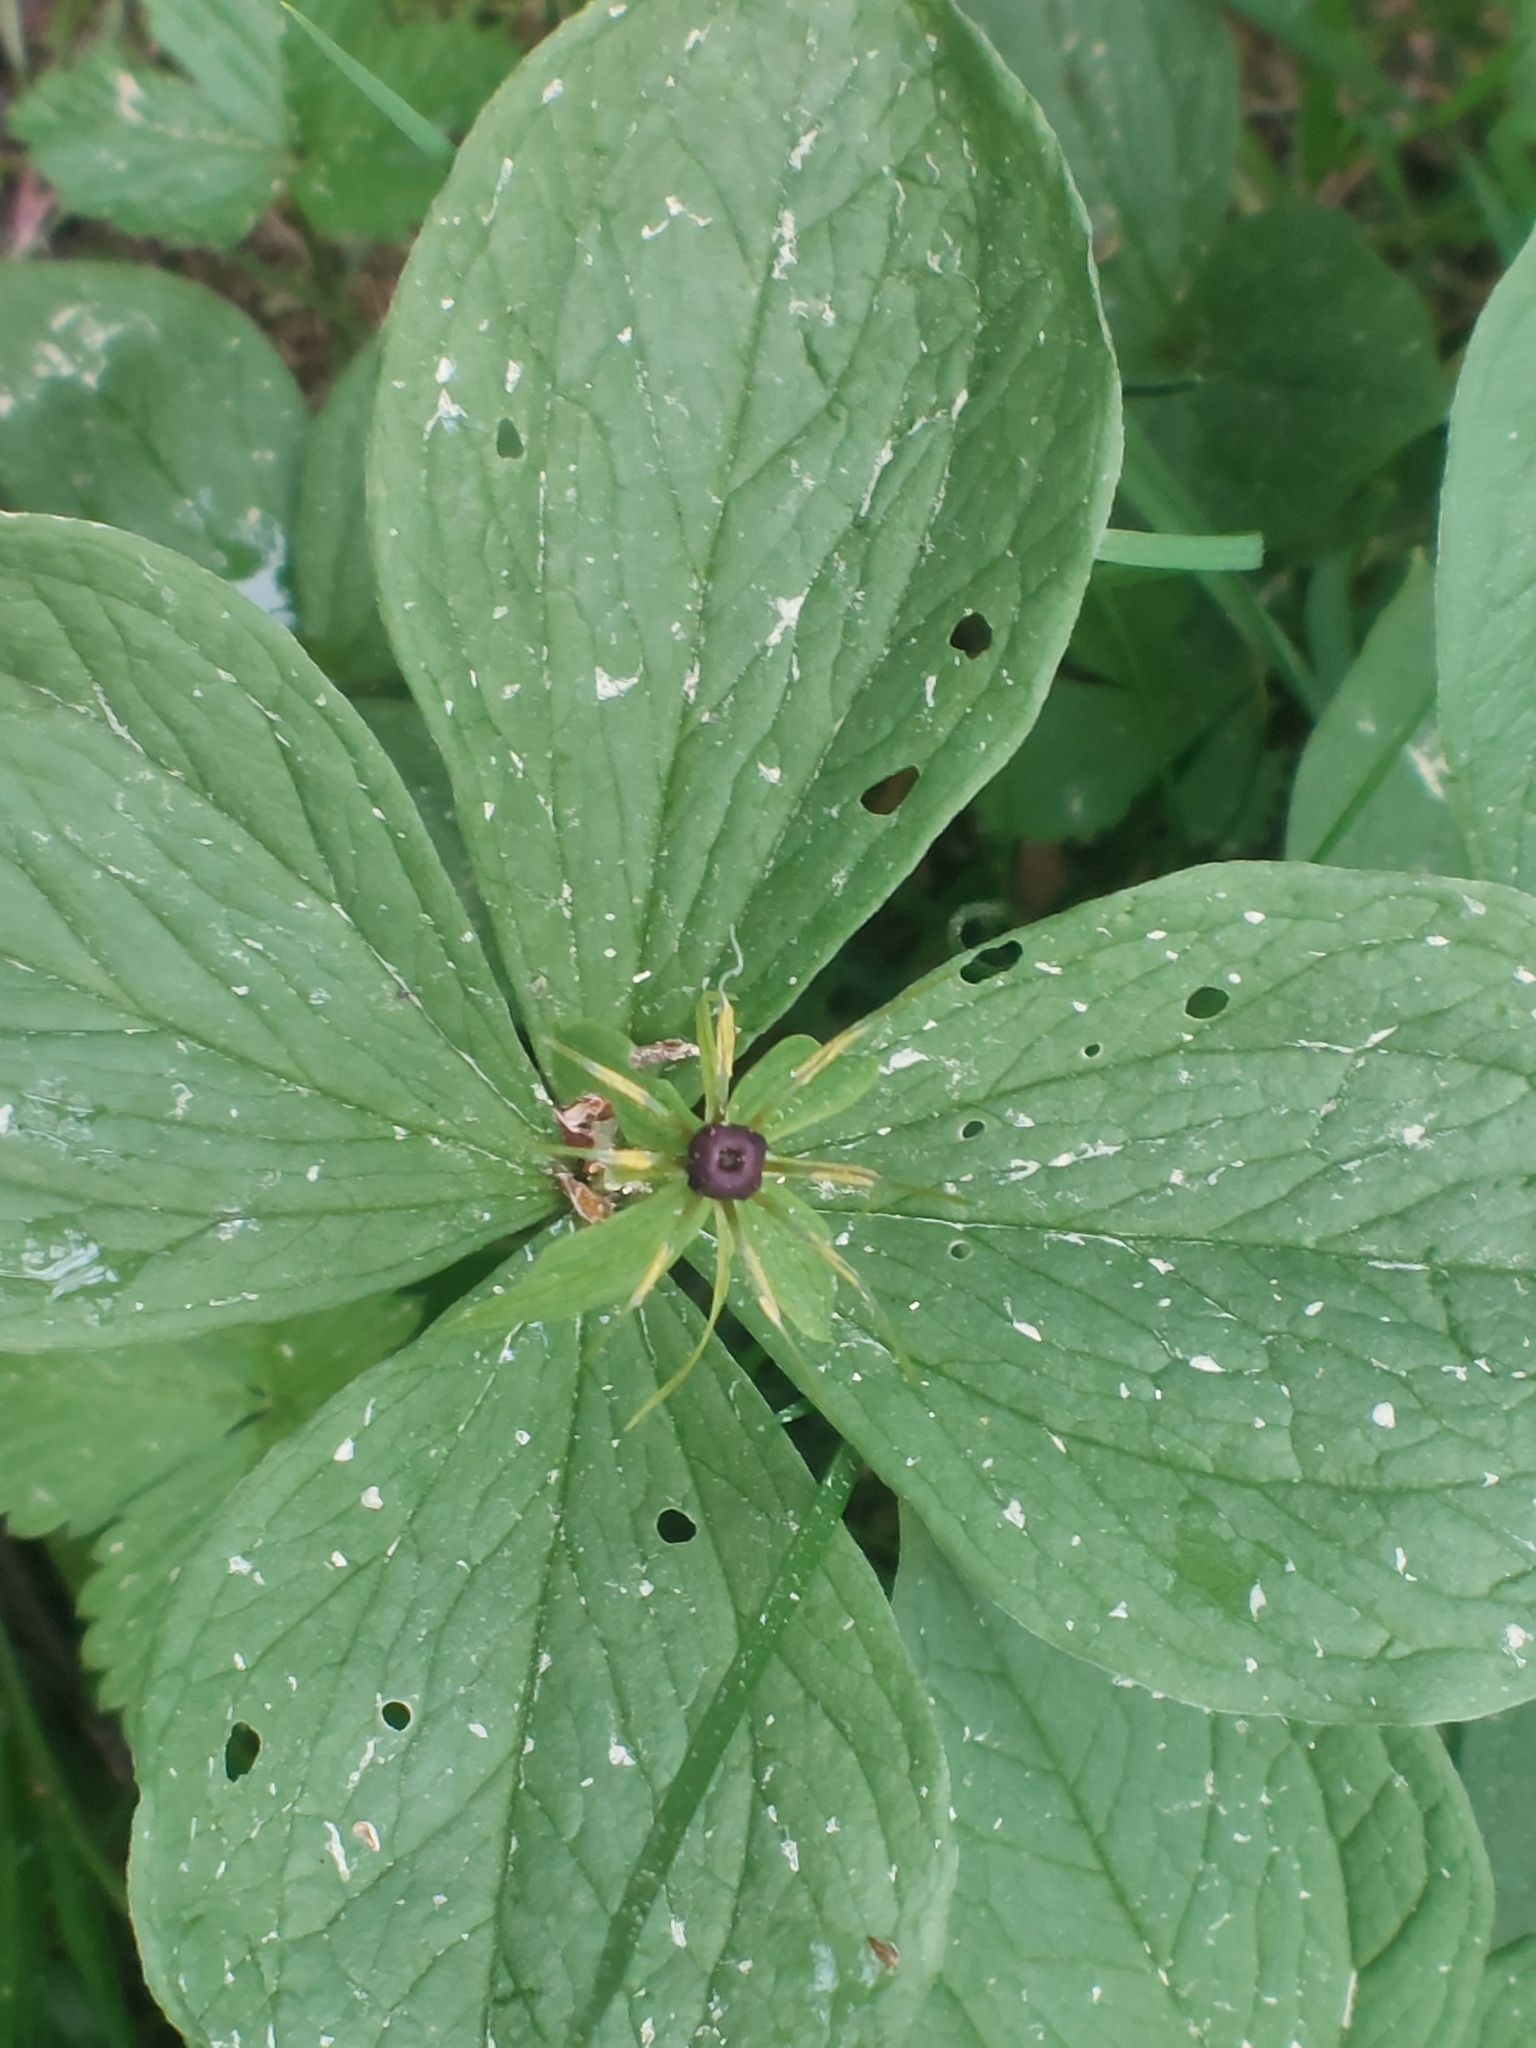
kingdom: Plantae
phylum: Tracheophyta
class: Liliopsida
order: Liliales
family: Melanthiaceae
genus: Paris
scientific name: Paris quadrifolia
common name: Herb-paris
